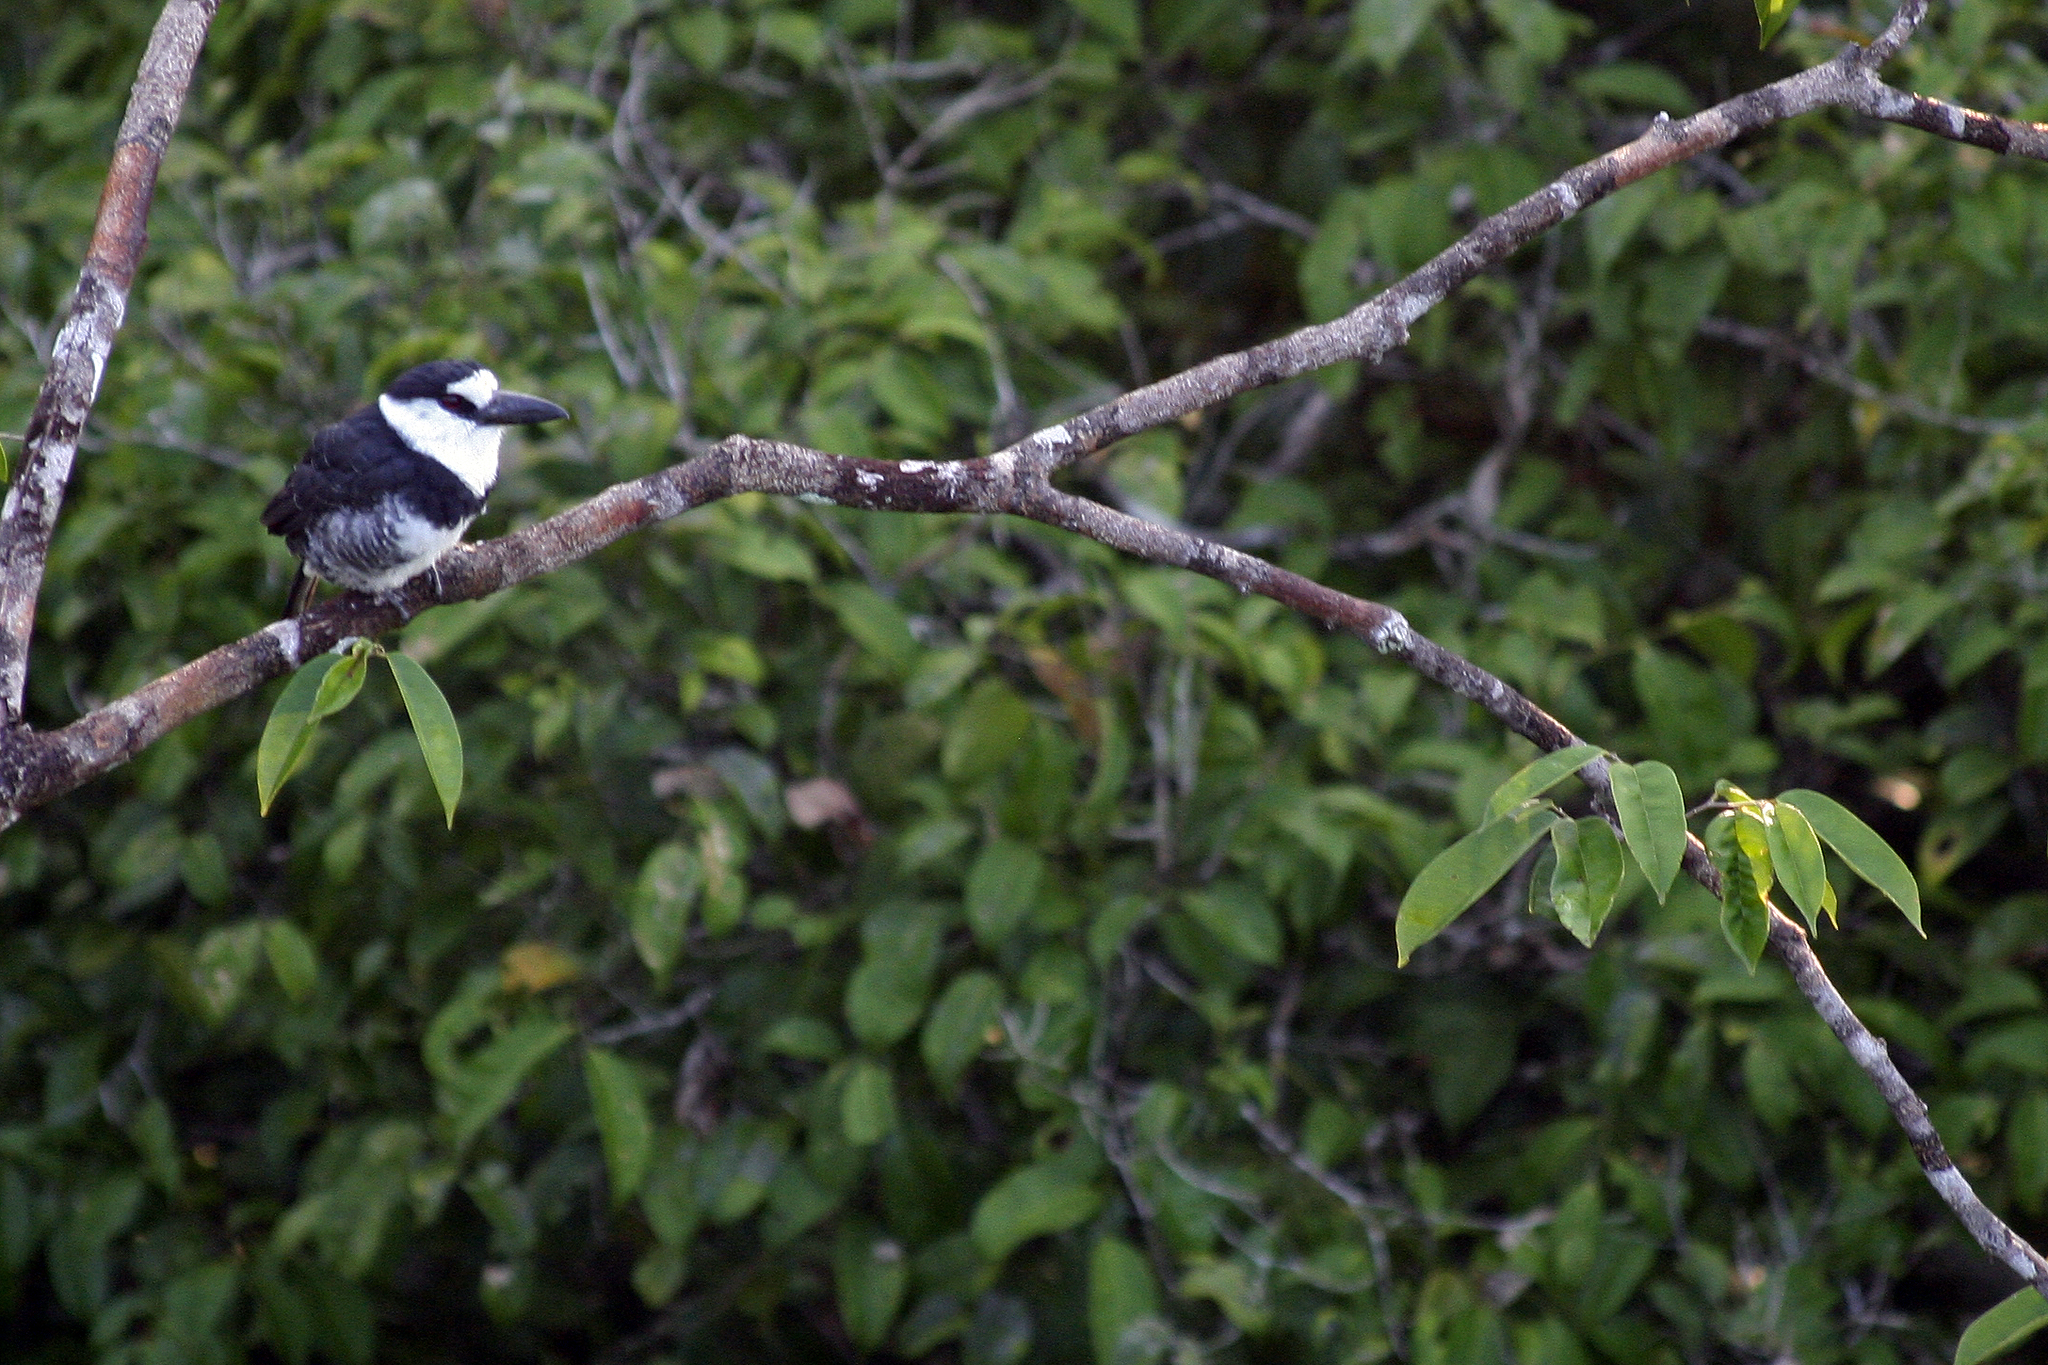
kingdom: Animalia
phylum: Chordata
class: Aves
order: Piciformes
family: Bucconidae
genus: Notharchus
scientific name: Notharchus hyperrhynchus
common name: White-necked puffbird
